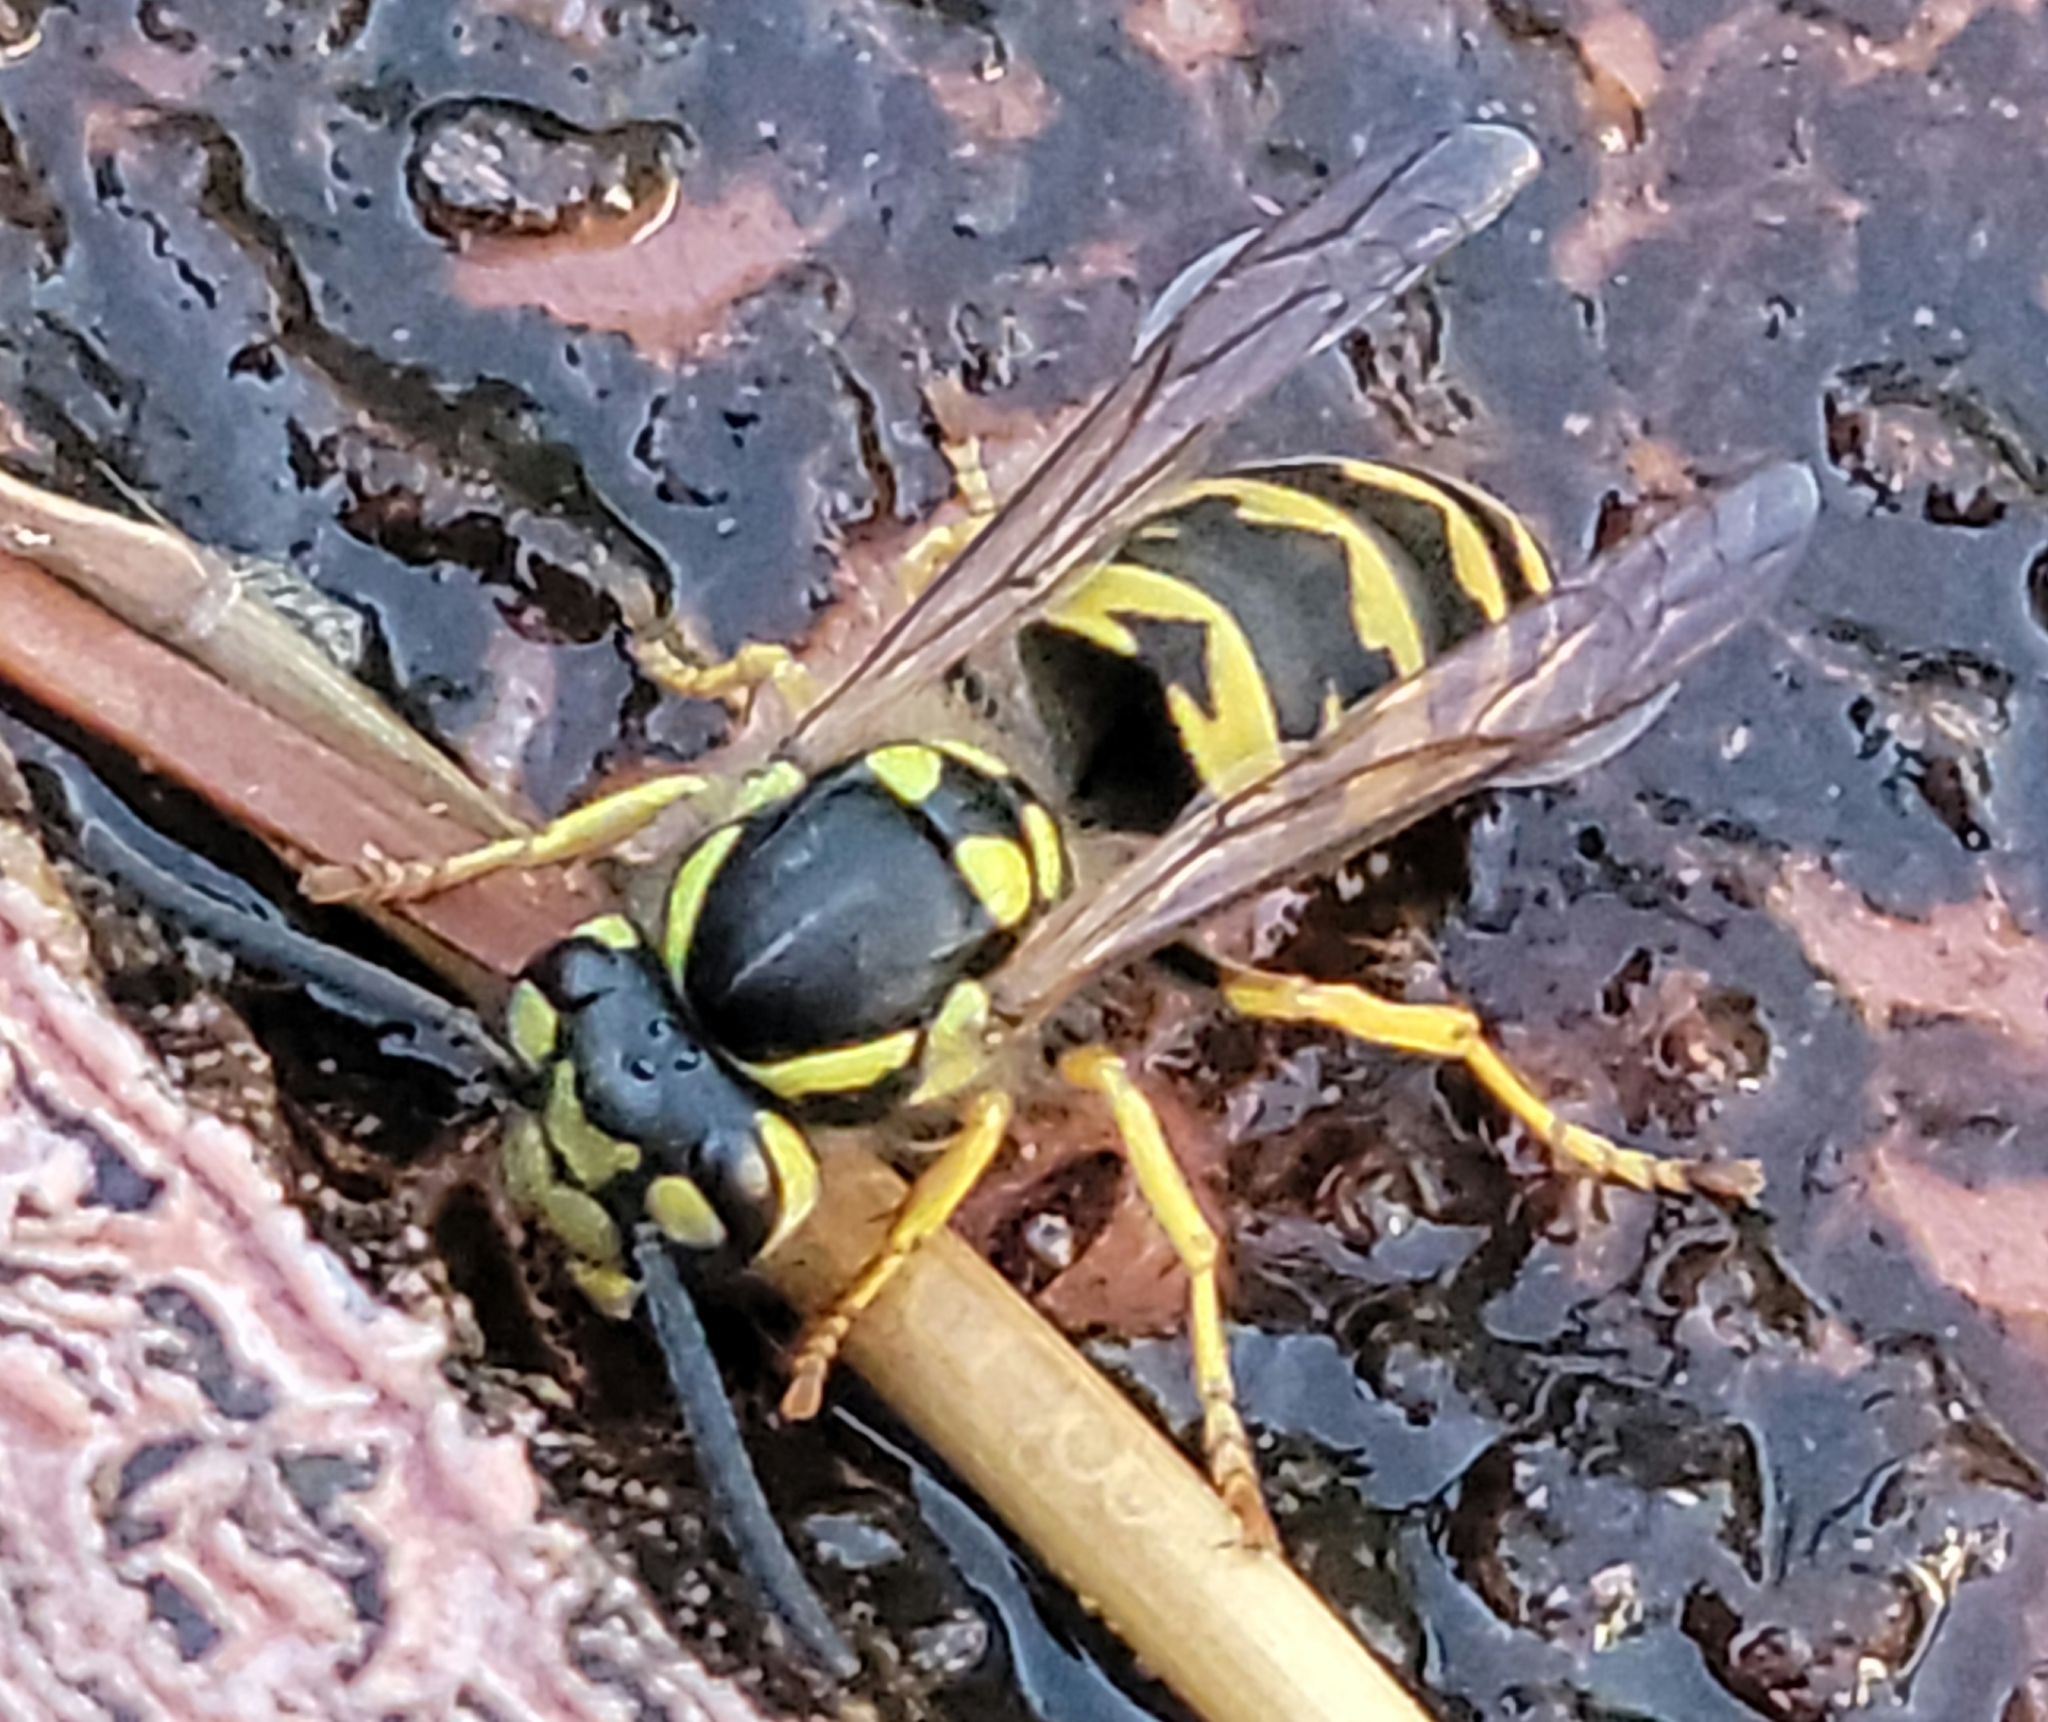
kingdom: Animalia
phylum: Arthropoda
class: Insecta
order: Hymenoptera
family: Vespidae
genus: Vespula
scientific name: Vespula germanica
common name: German wasp
